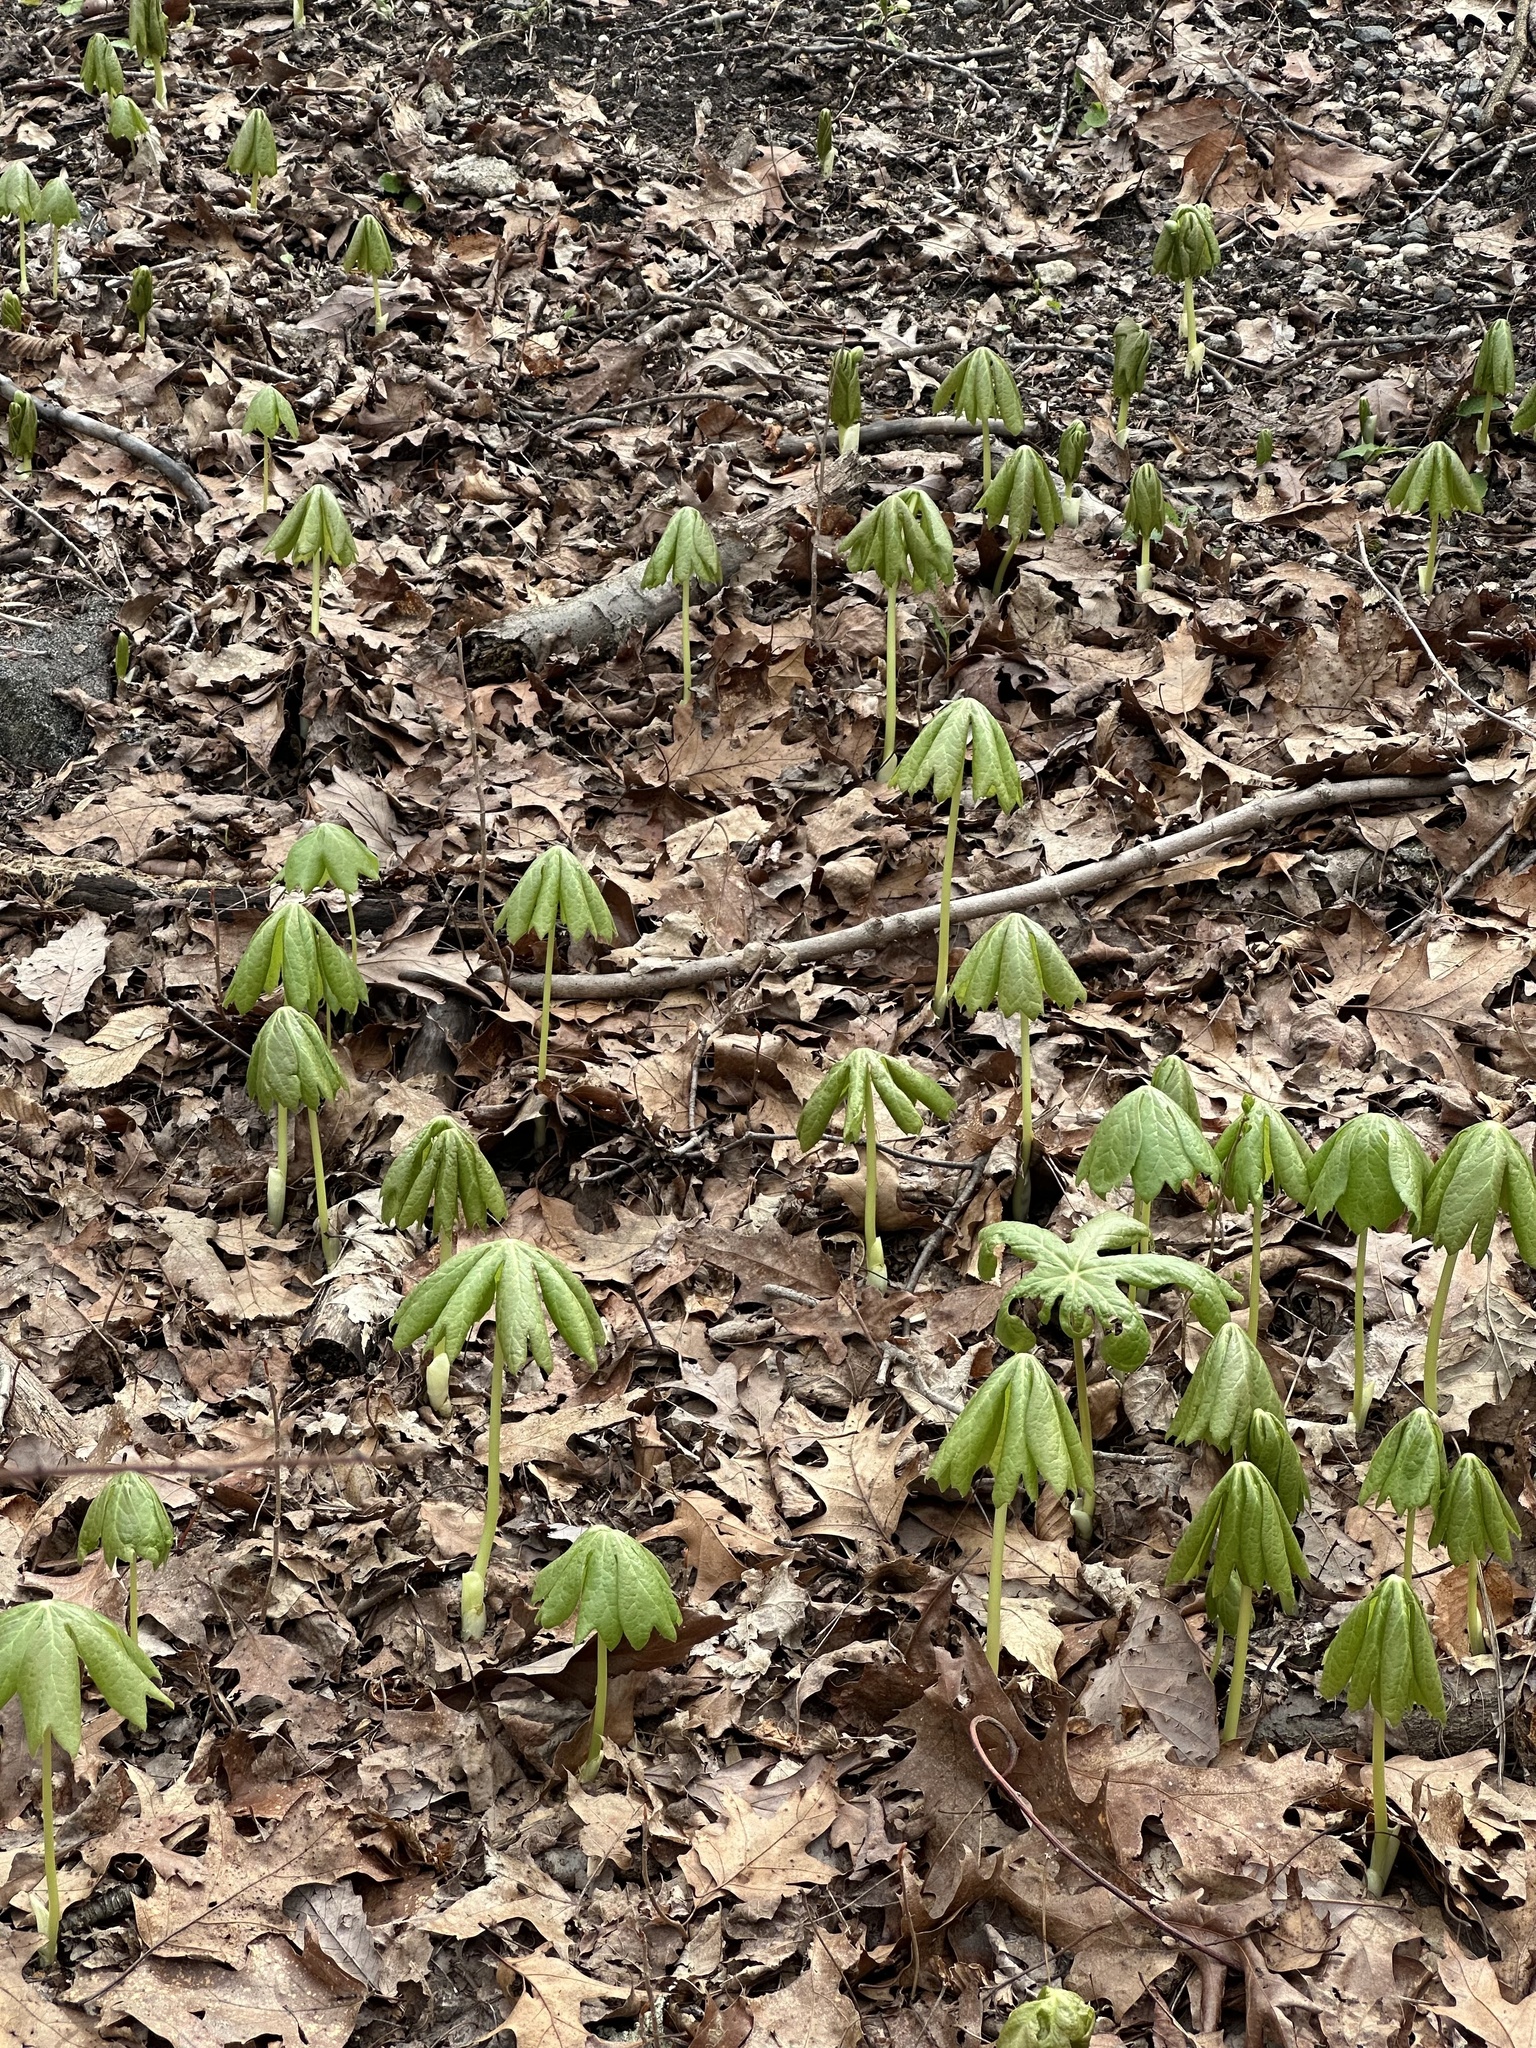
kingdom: Plantae
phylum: Tracheophyta
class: Magnoliopsida
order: Ranunculales
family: Berberidaceae
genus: Podophyllum
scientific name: Podophyllum peltatum
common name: Wild mandrake
